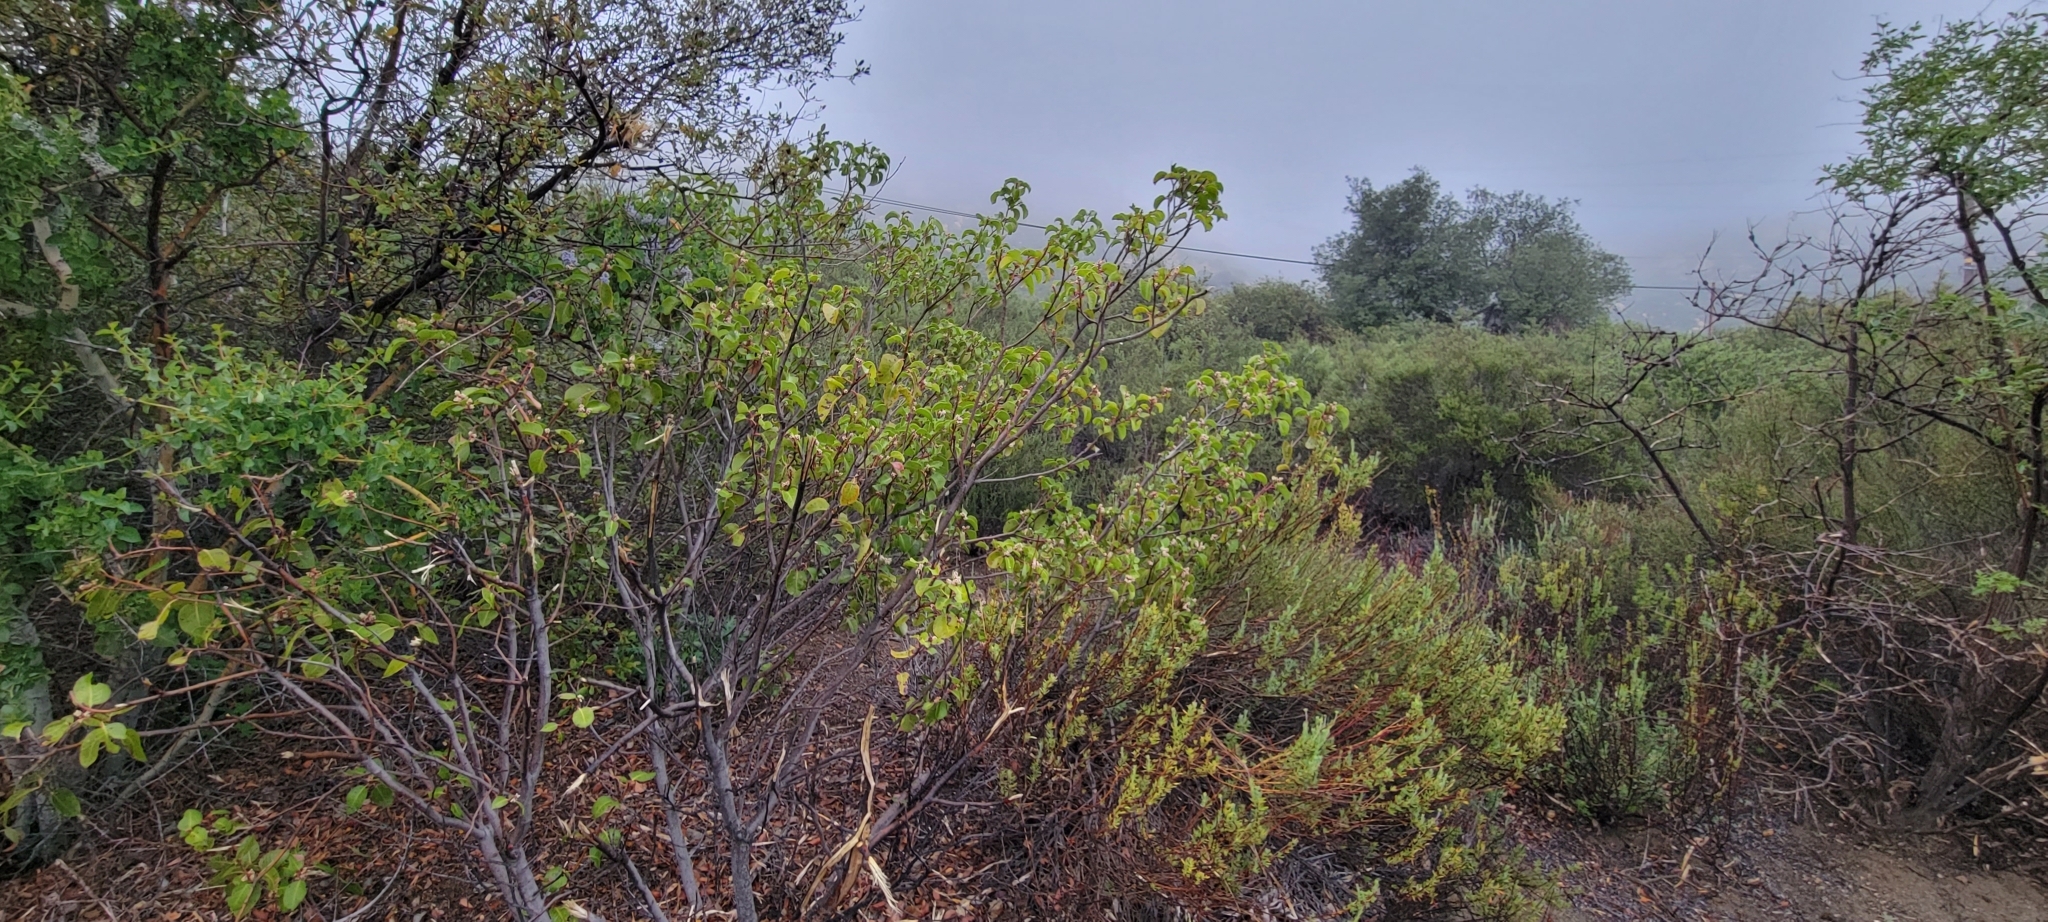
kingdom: Plantae
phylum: Tracheophyta
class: Magnoliopsida
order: Sapindales
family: Anacardiaceae
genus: Rhus
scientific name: Rhus ovata
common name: Sugar sumac
